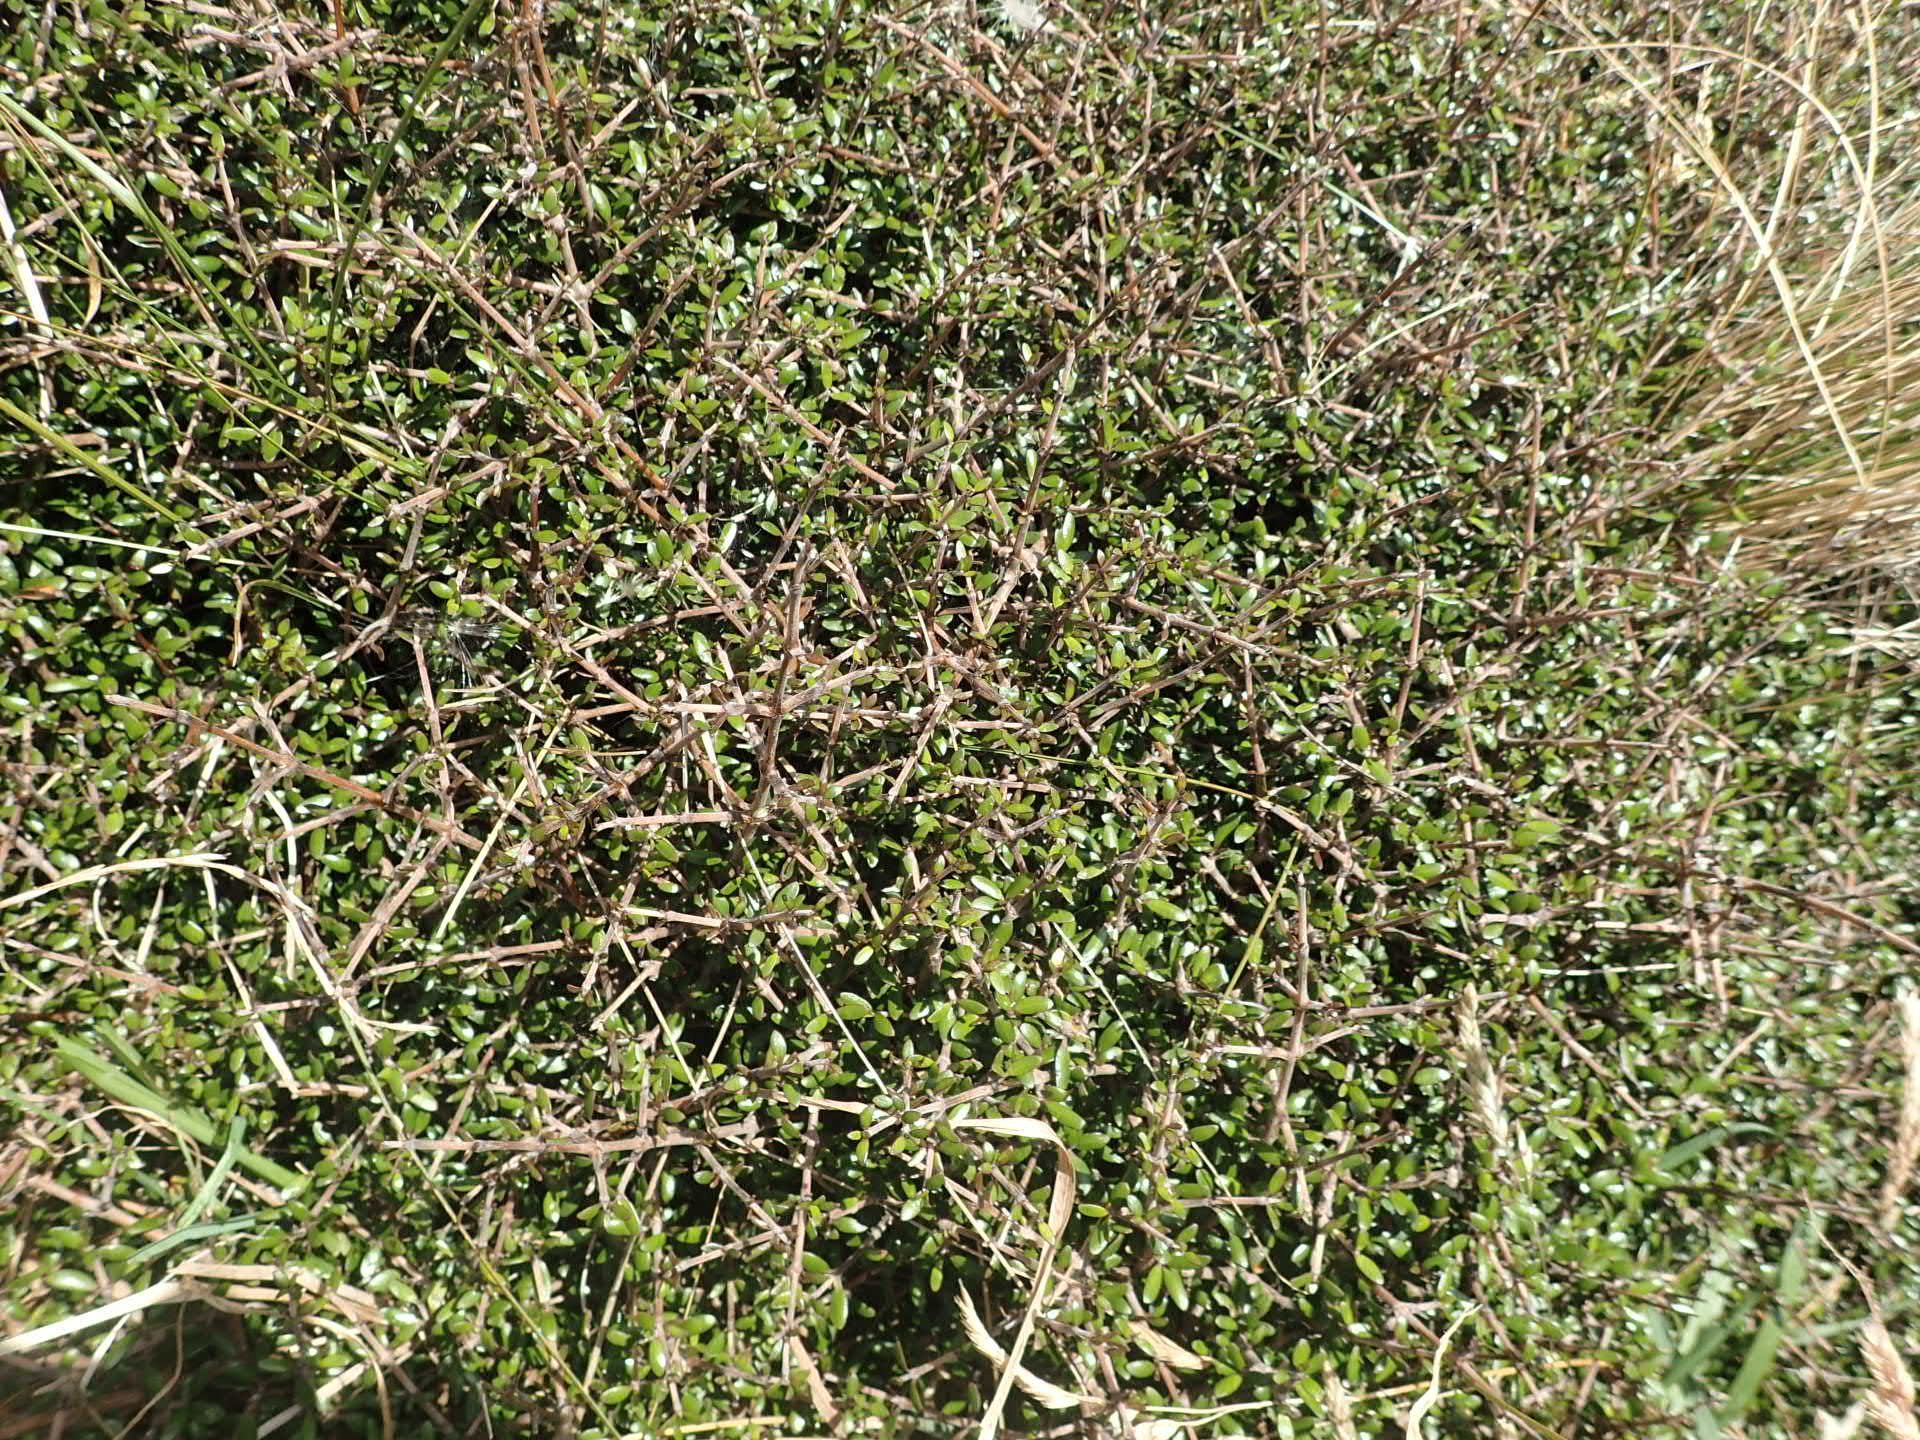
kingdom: Plantae
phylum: Tracheophyta
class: Magnoliopsida
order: Gentianales
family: Rubiaceae
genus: Coprosma
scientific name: Coprosma propinqua
